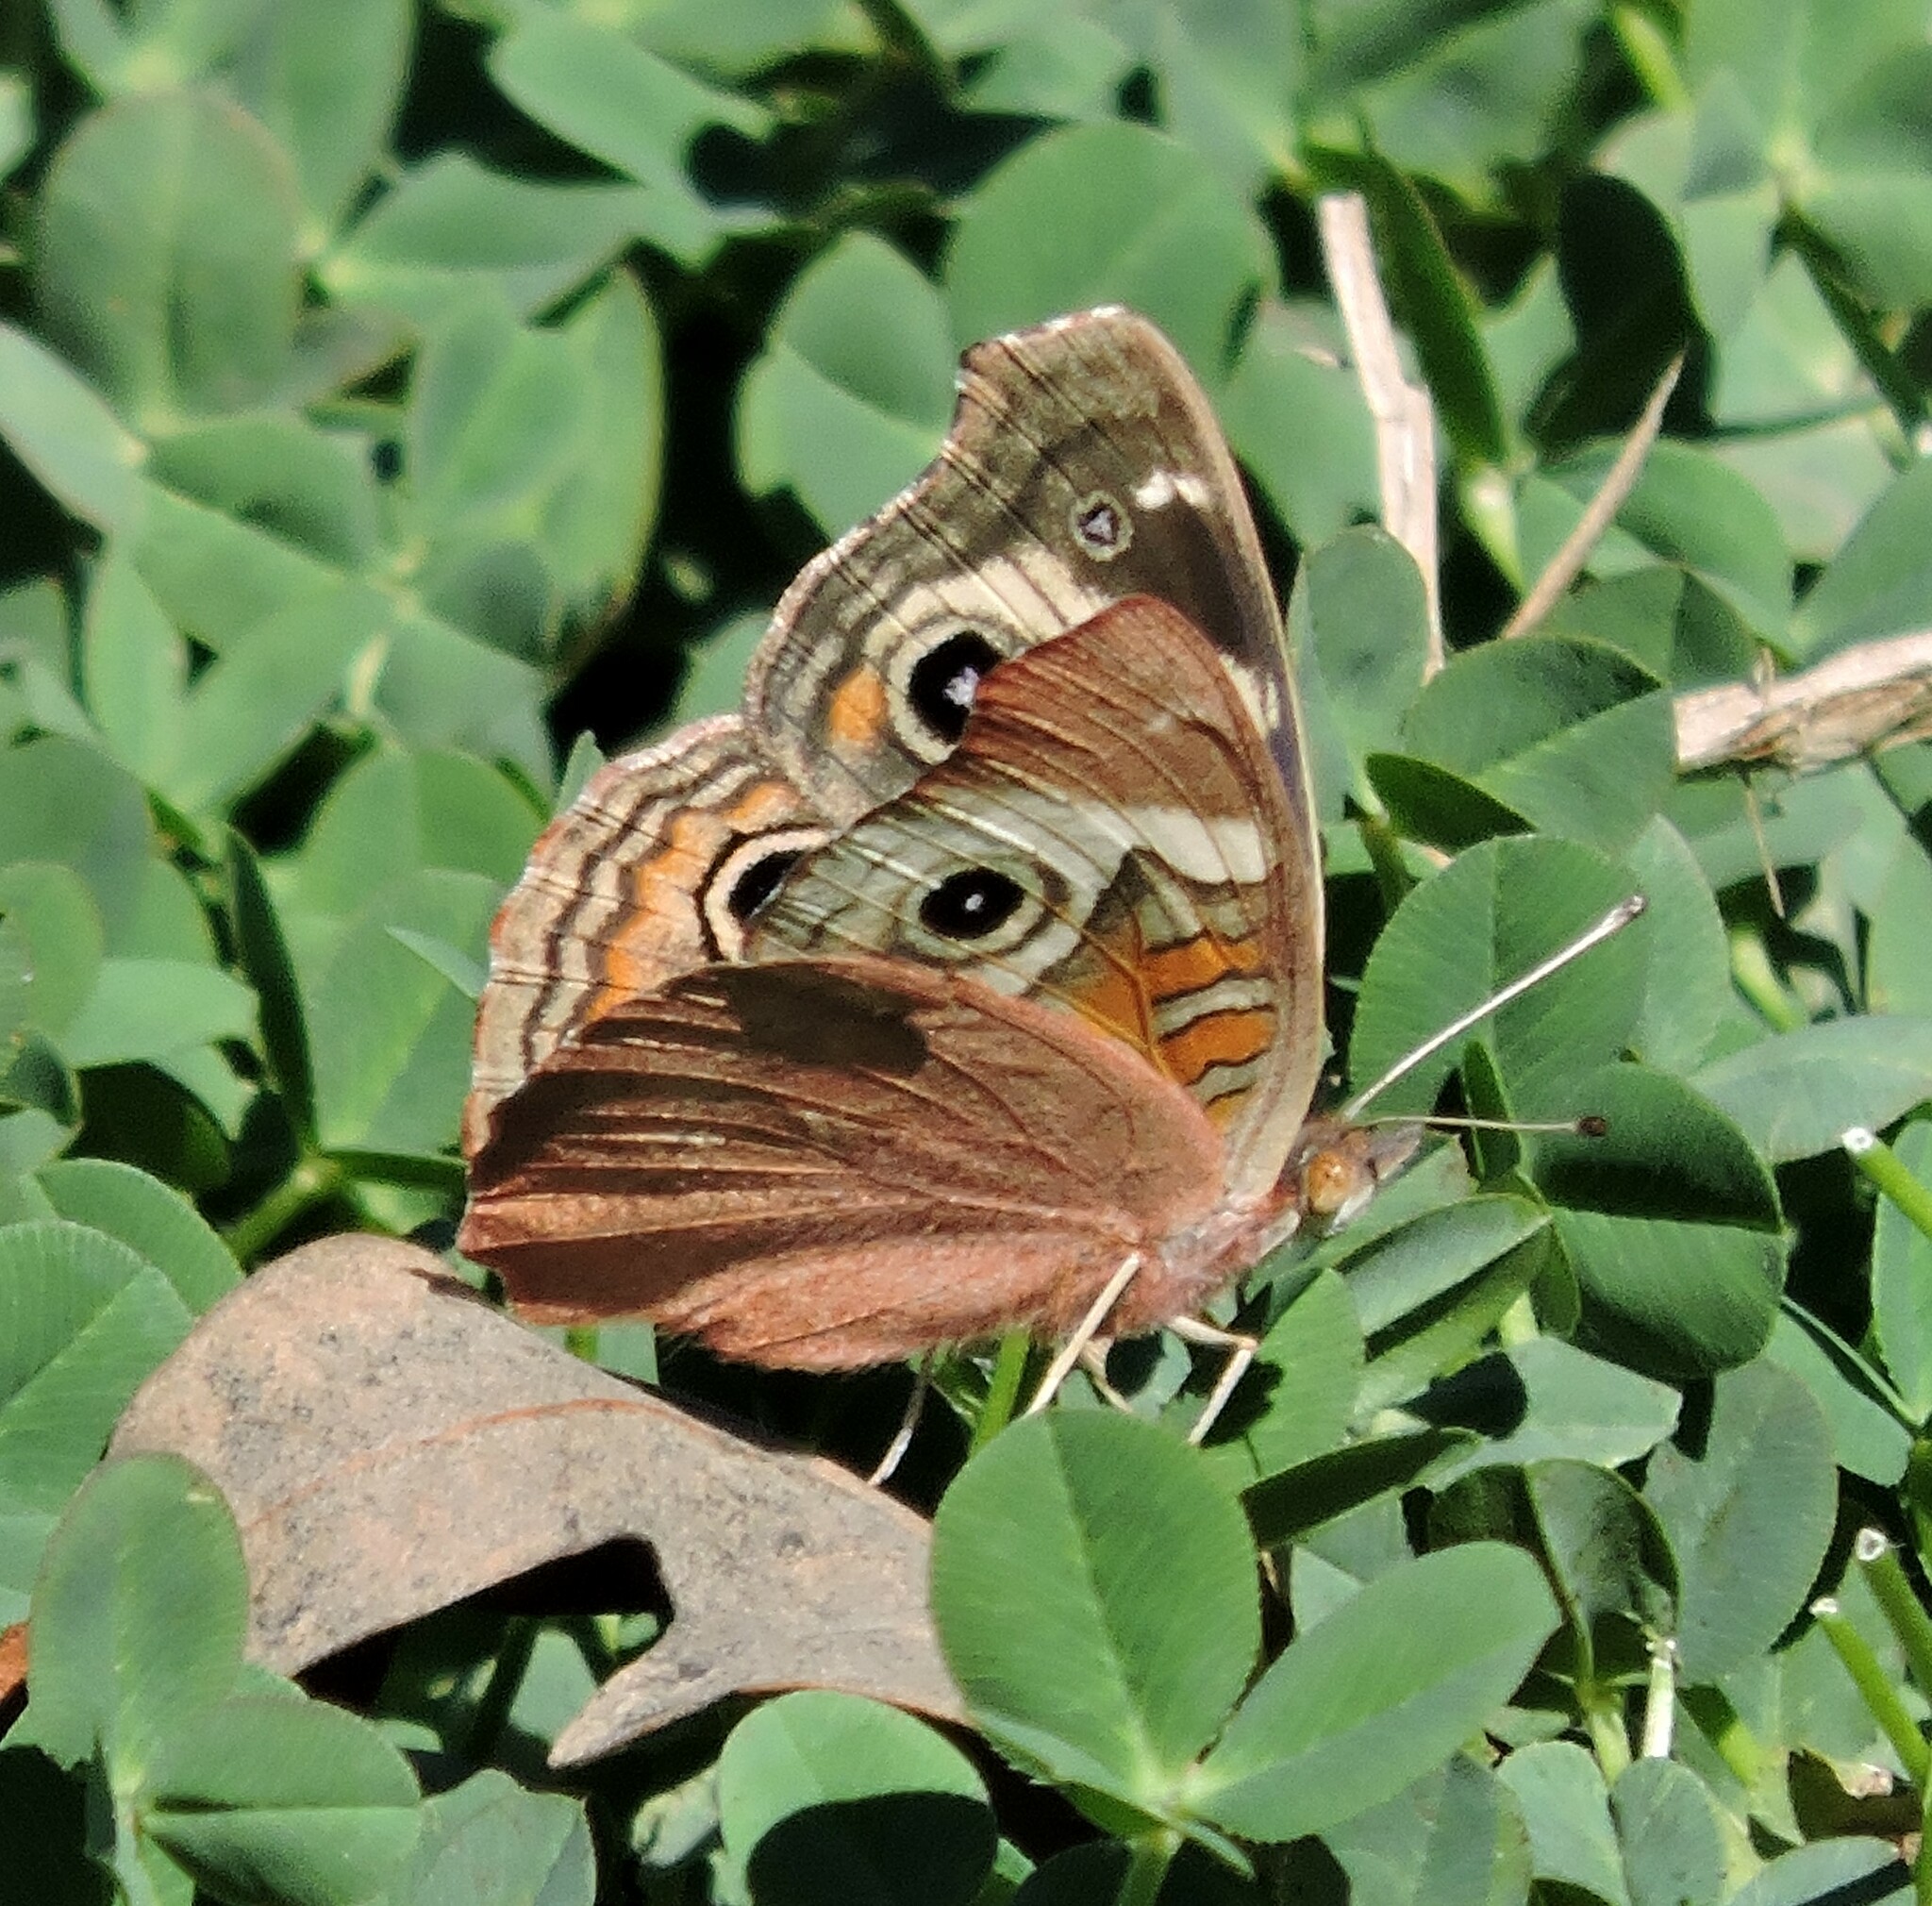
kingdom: Animalia
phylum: Arthropoda
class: Insecta
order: Lepidoptera
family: Nymphalidae
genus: Junonia
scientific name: Junonia grisea
